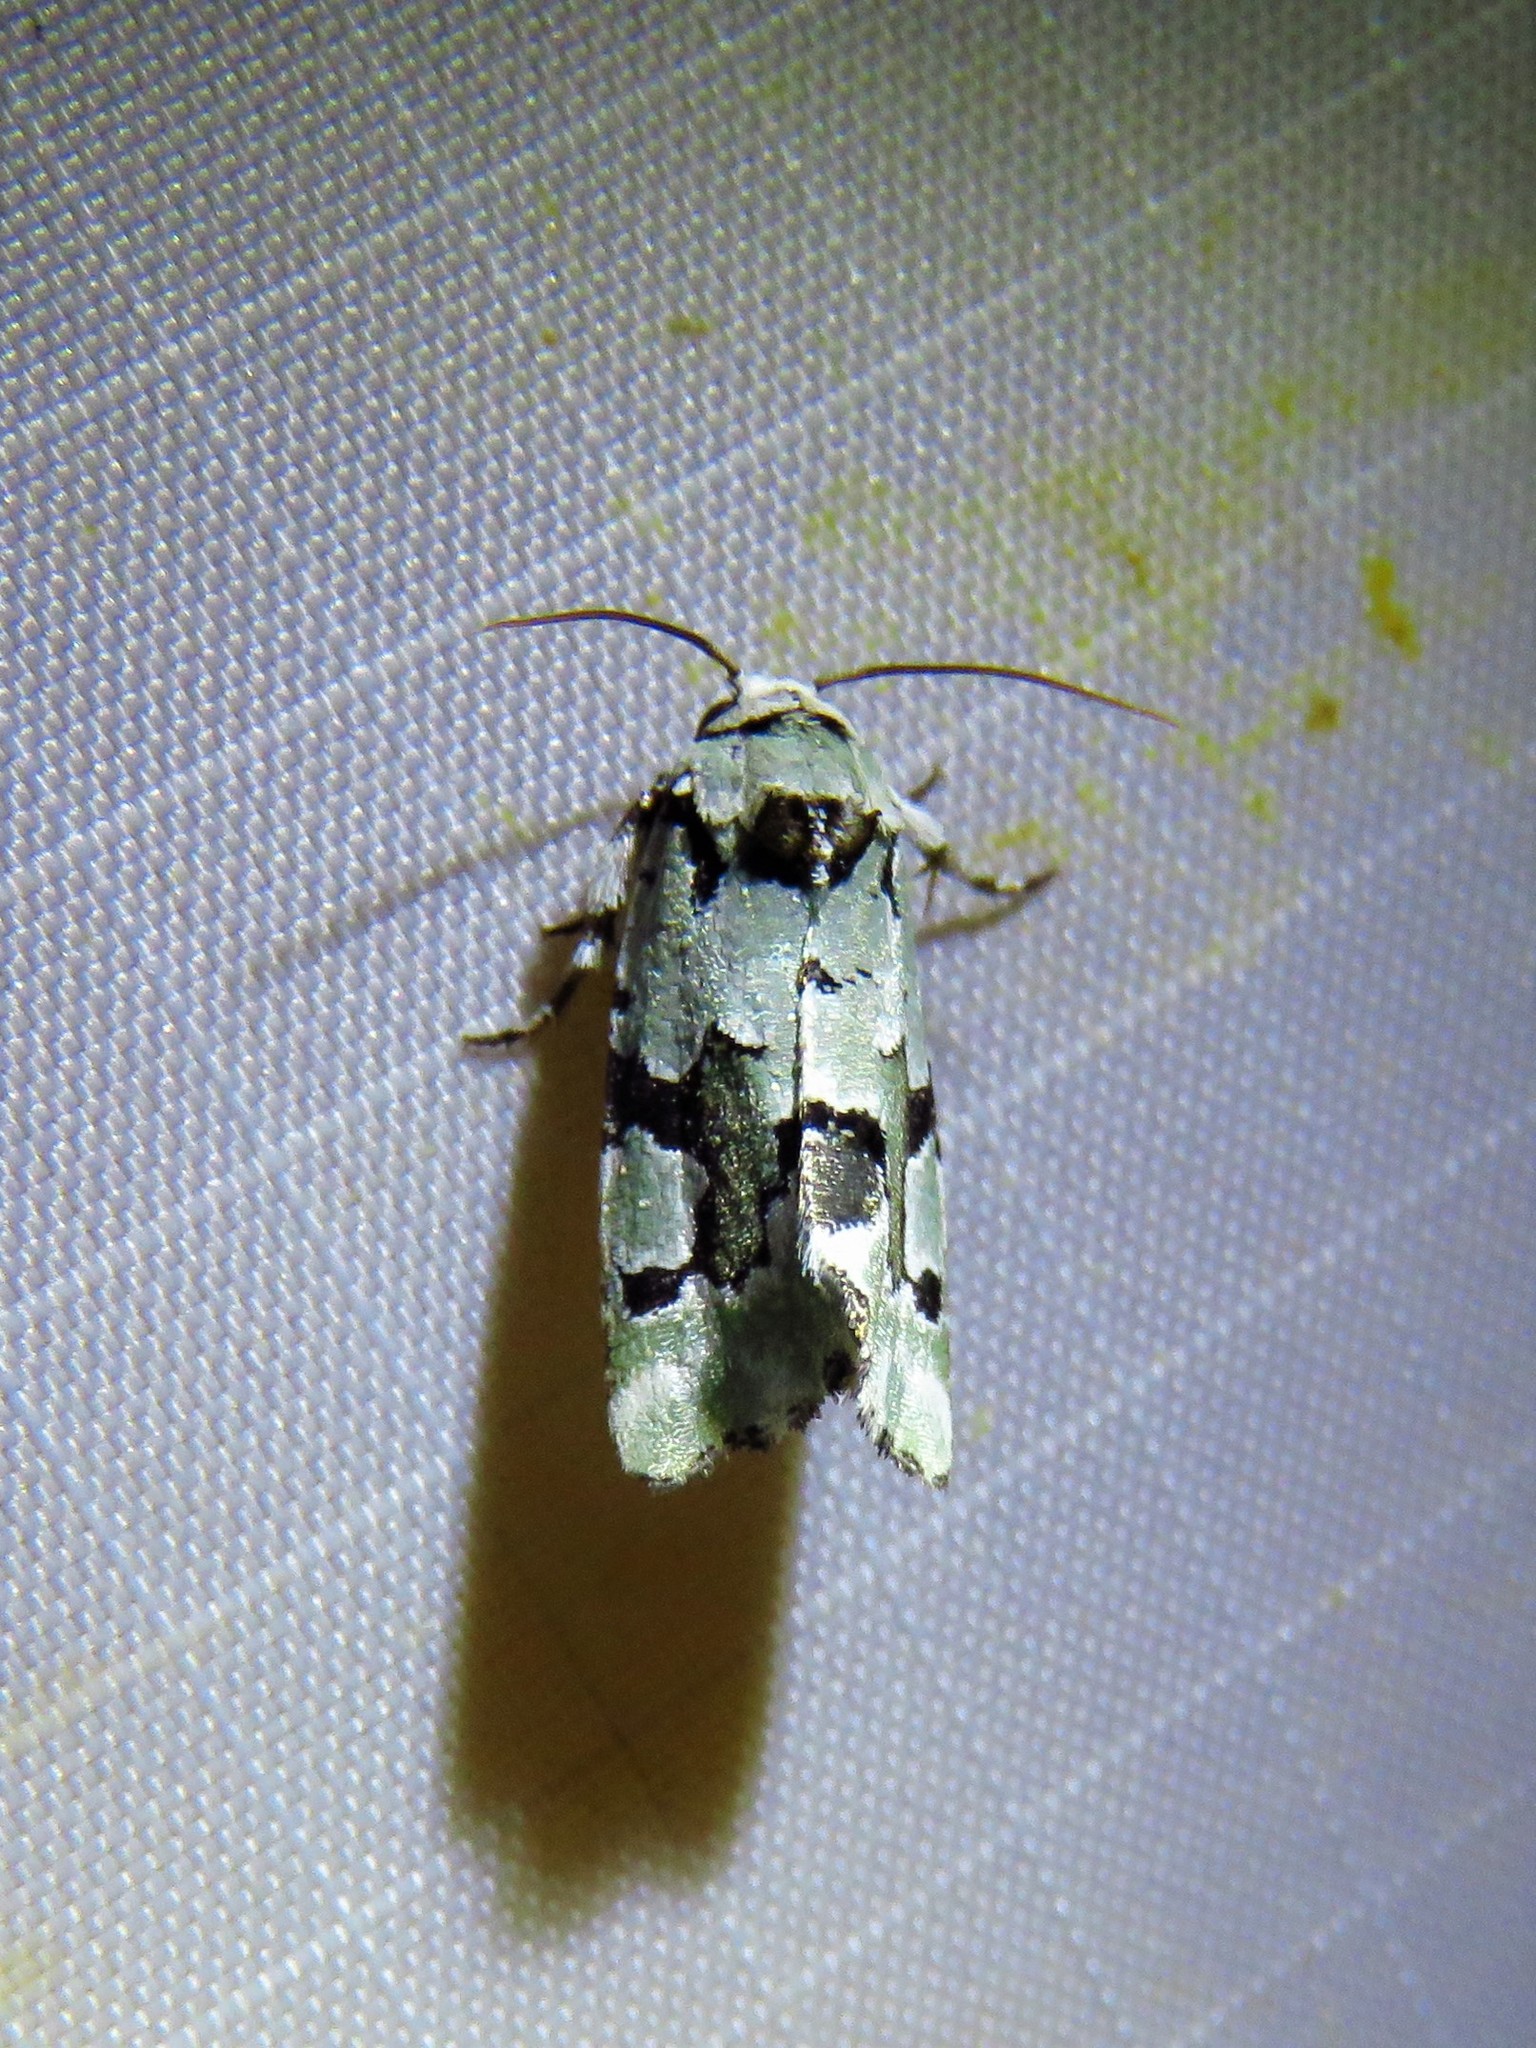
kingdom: Animalia
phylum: Arthropoda
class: Insecta
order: Lepidoptera
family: Noctuidae
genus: Emarginea
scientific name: Emarginea percara
